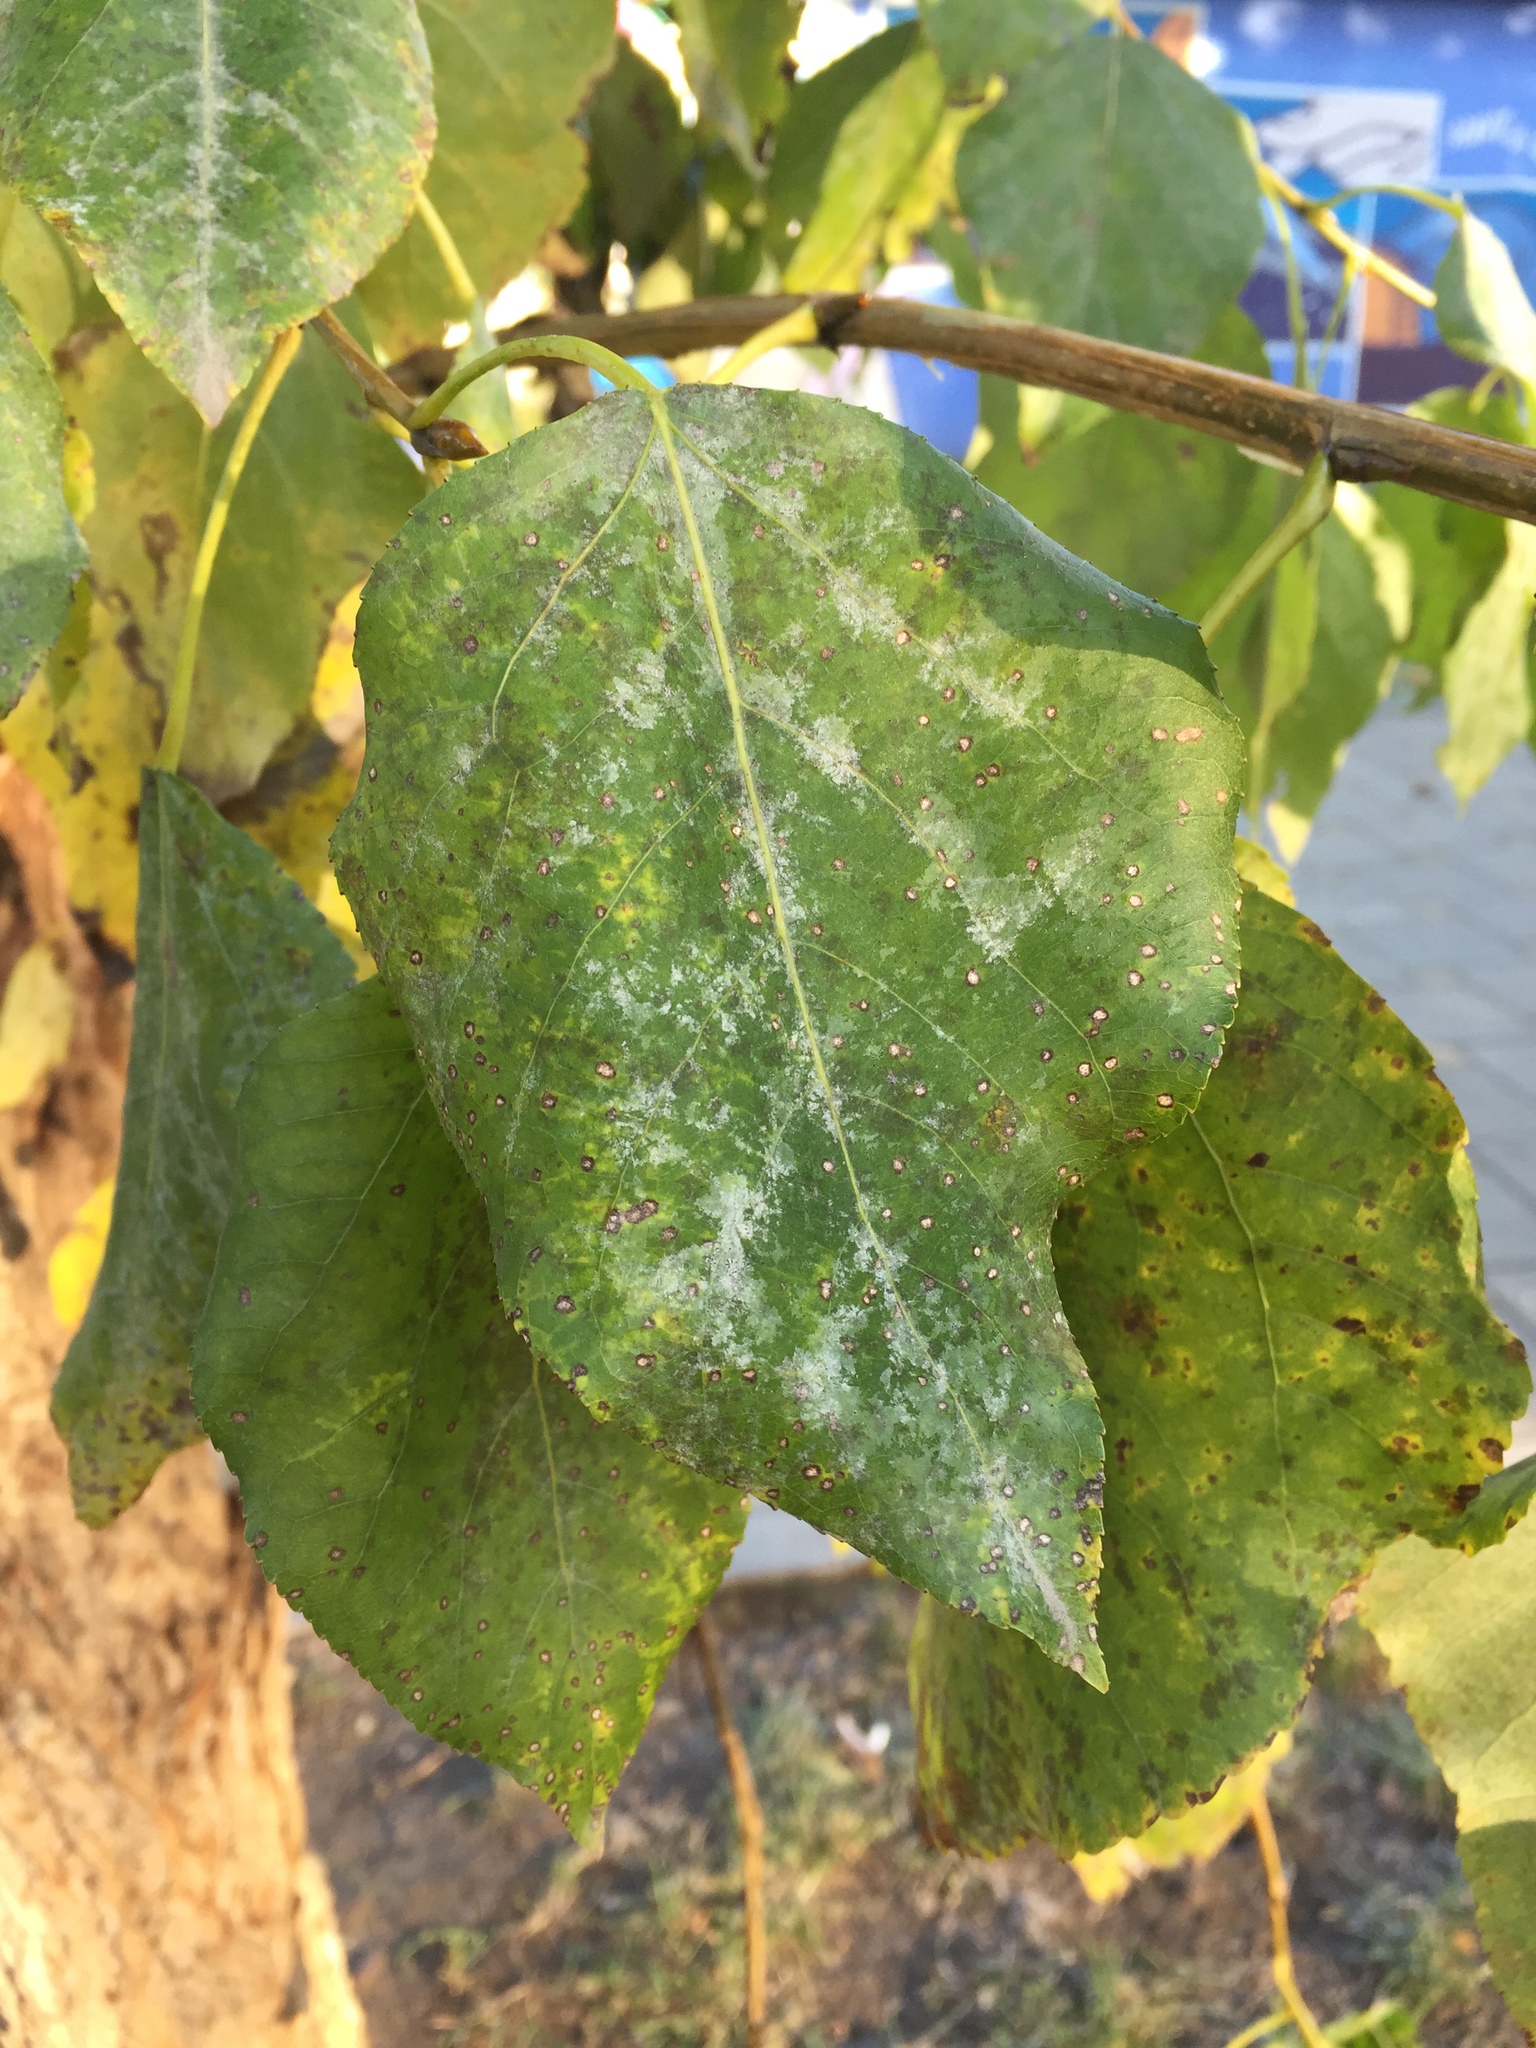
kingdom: Plantae
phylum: Tracheophyta
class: Magnoliopsida
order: Malpighiales
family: Salicaceae
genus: Populus
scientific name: Populus sibirica
